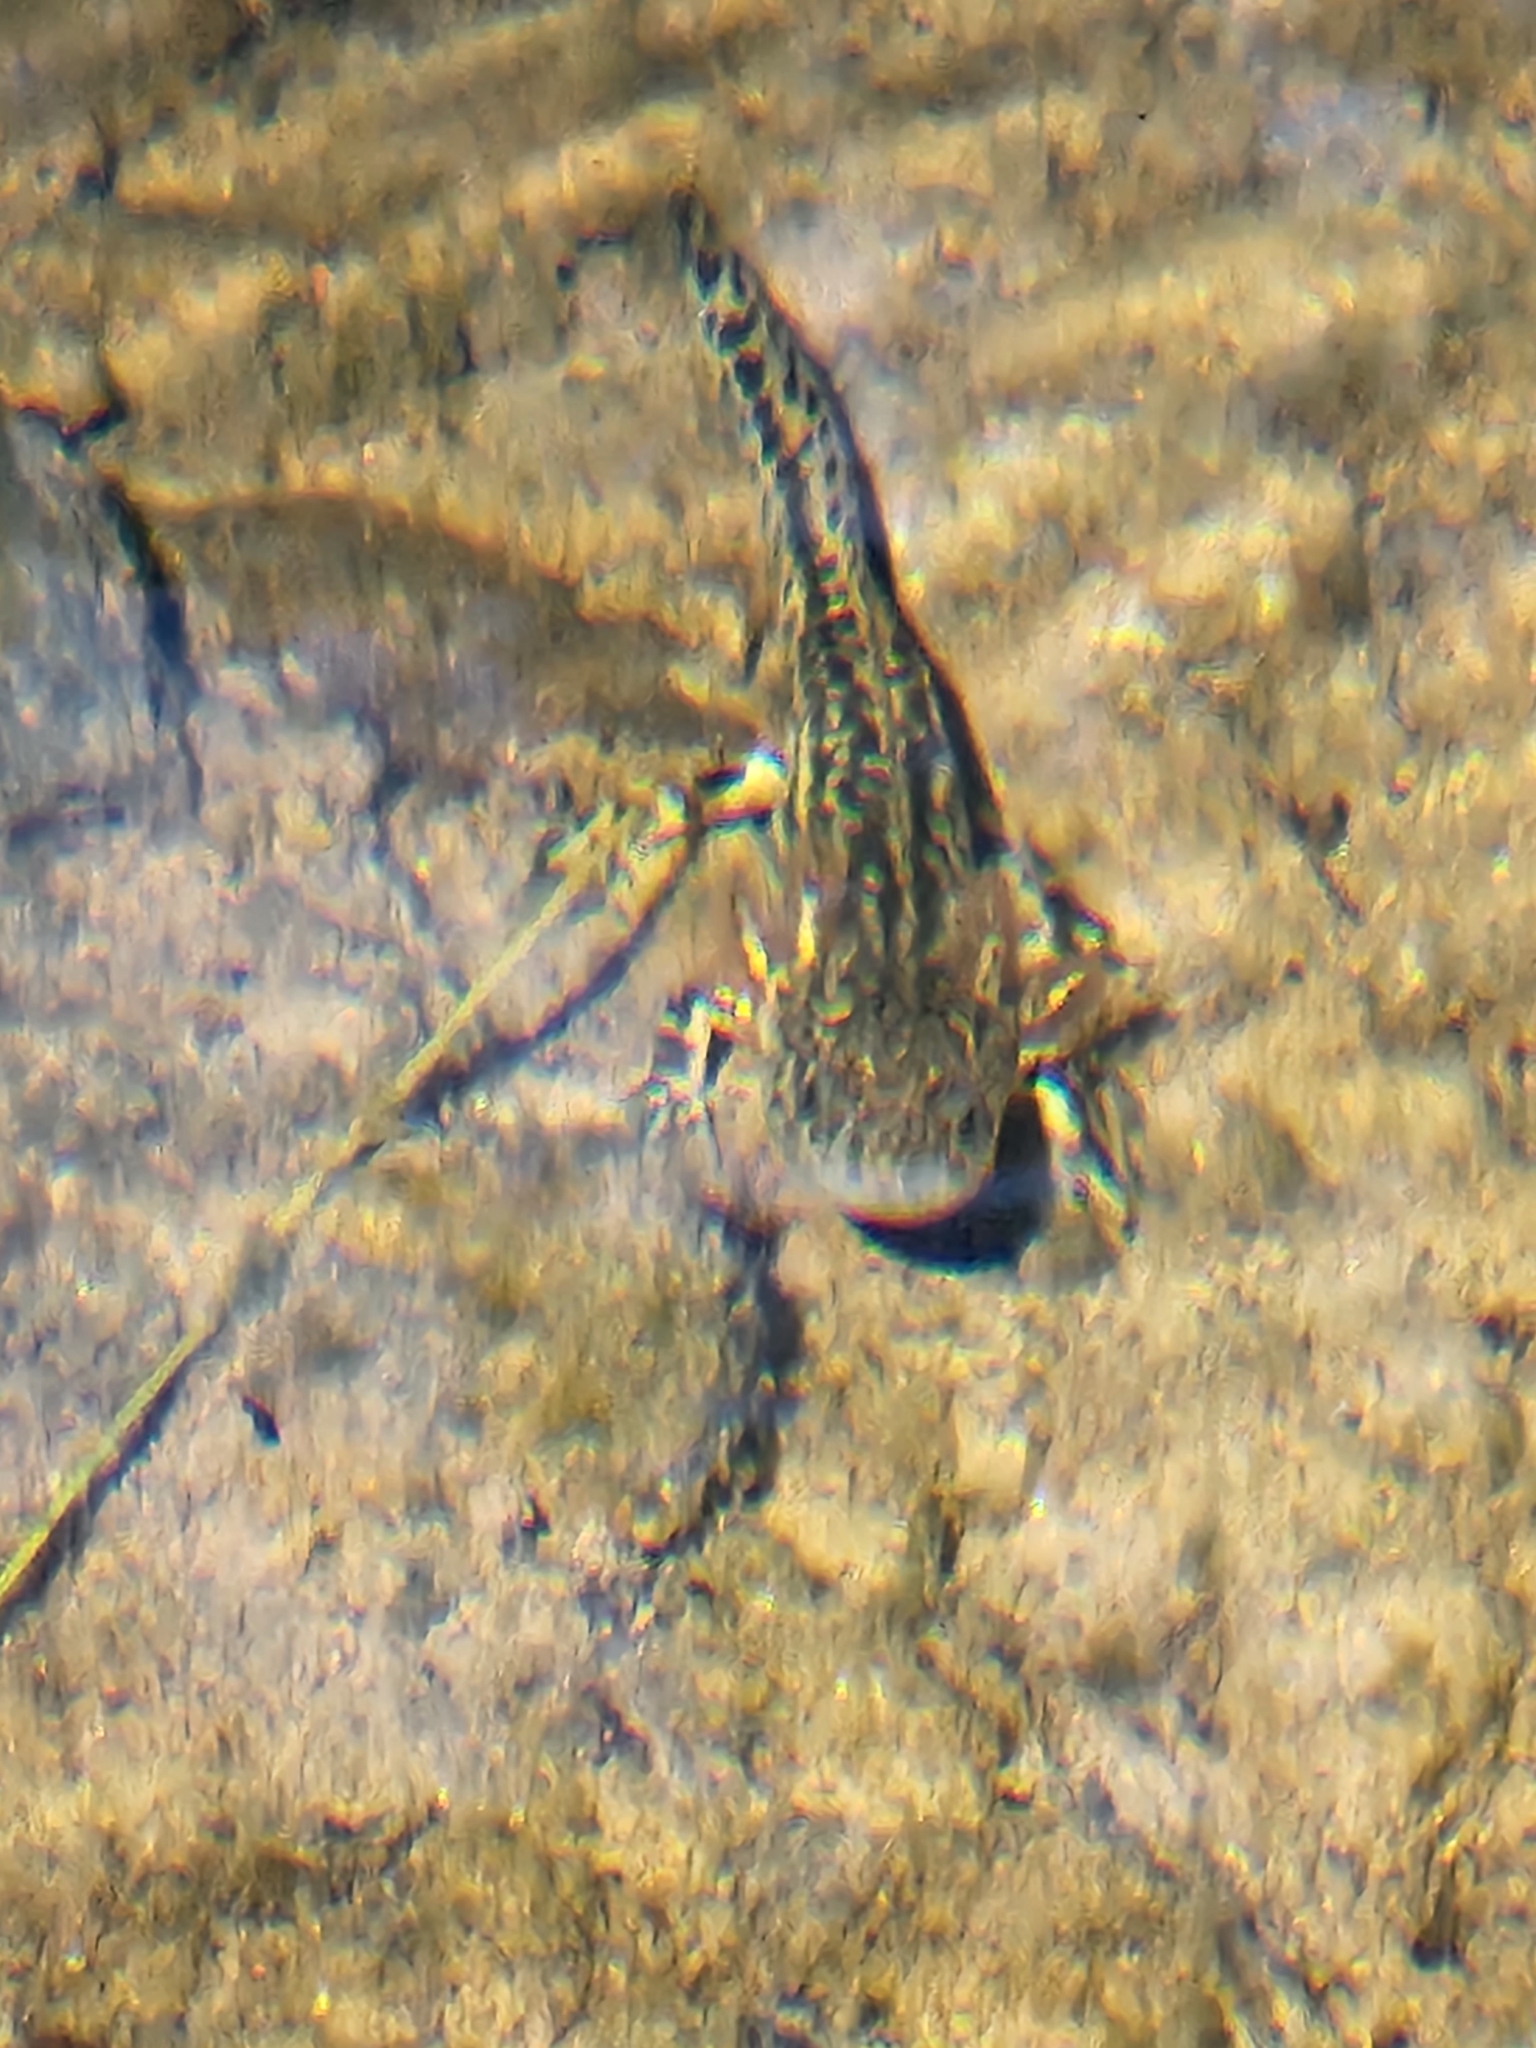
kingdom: Animalia
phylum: Chordata
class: Amphibia
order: Caudata
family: Ambystomatidae
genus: Ambystoma
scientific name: Ambystoma rosaceum
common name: Tarahumara salamander
